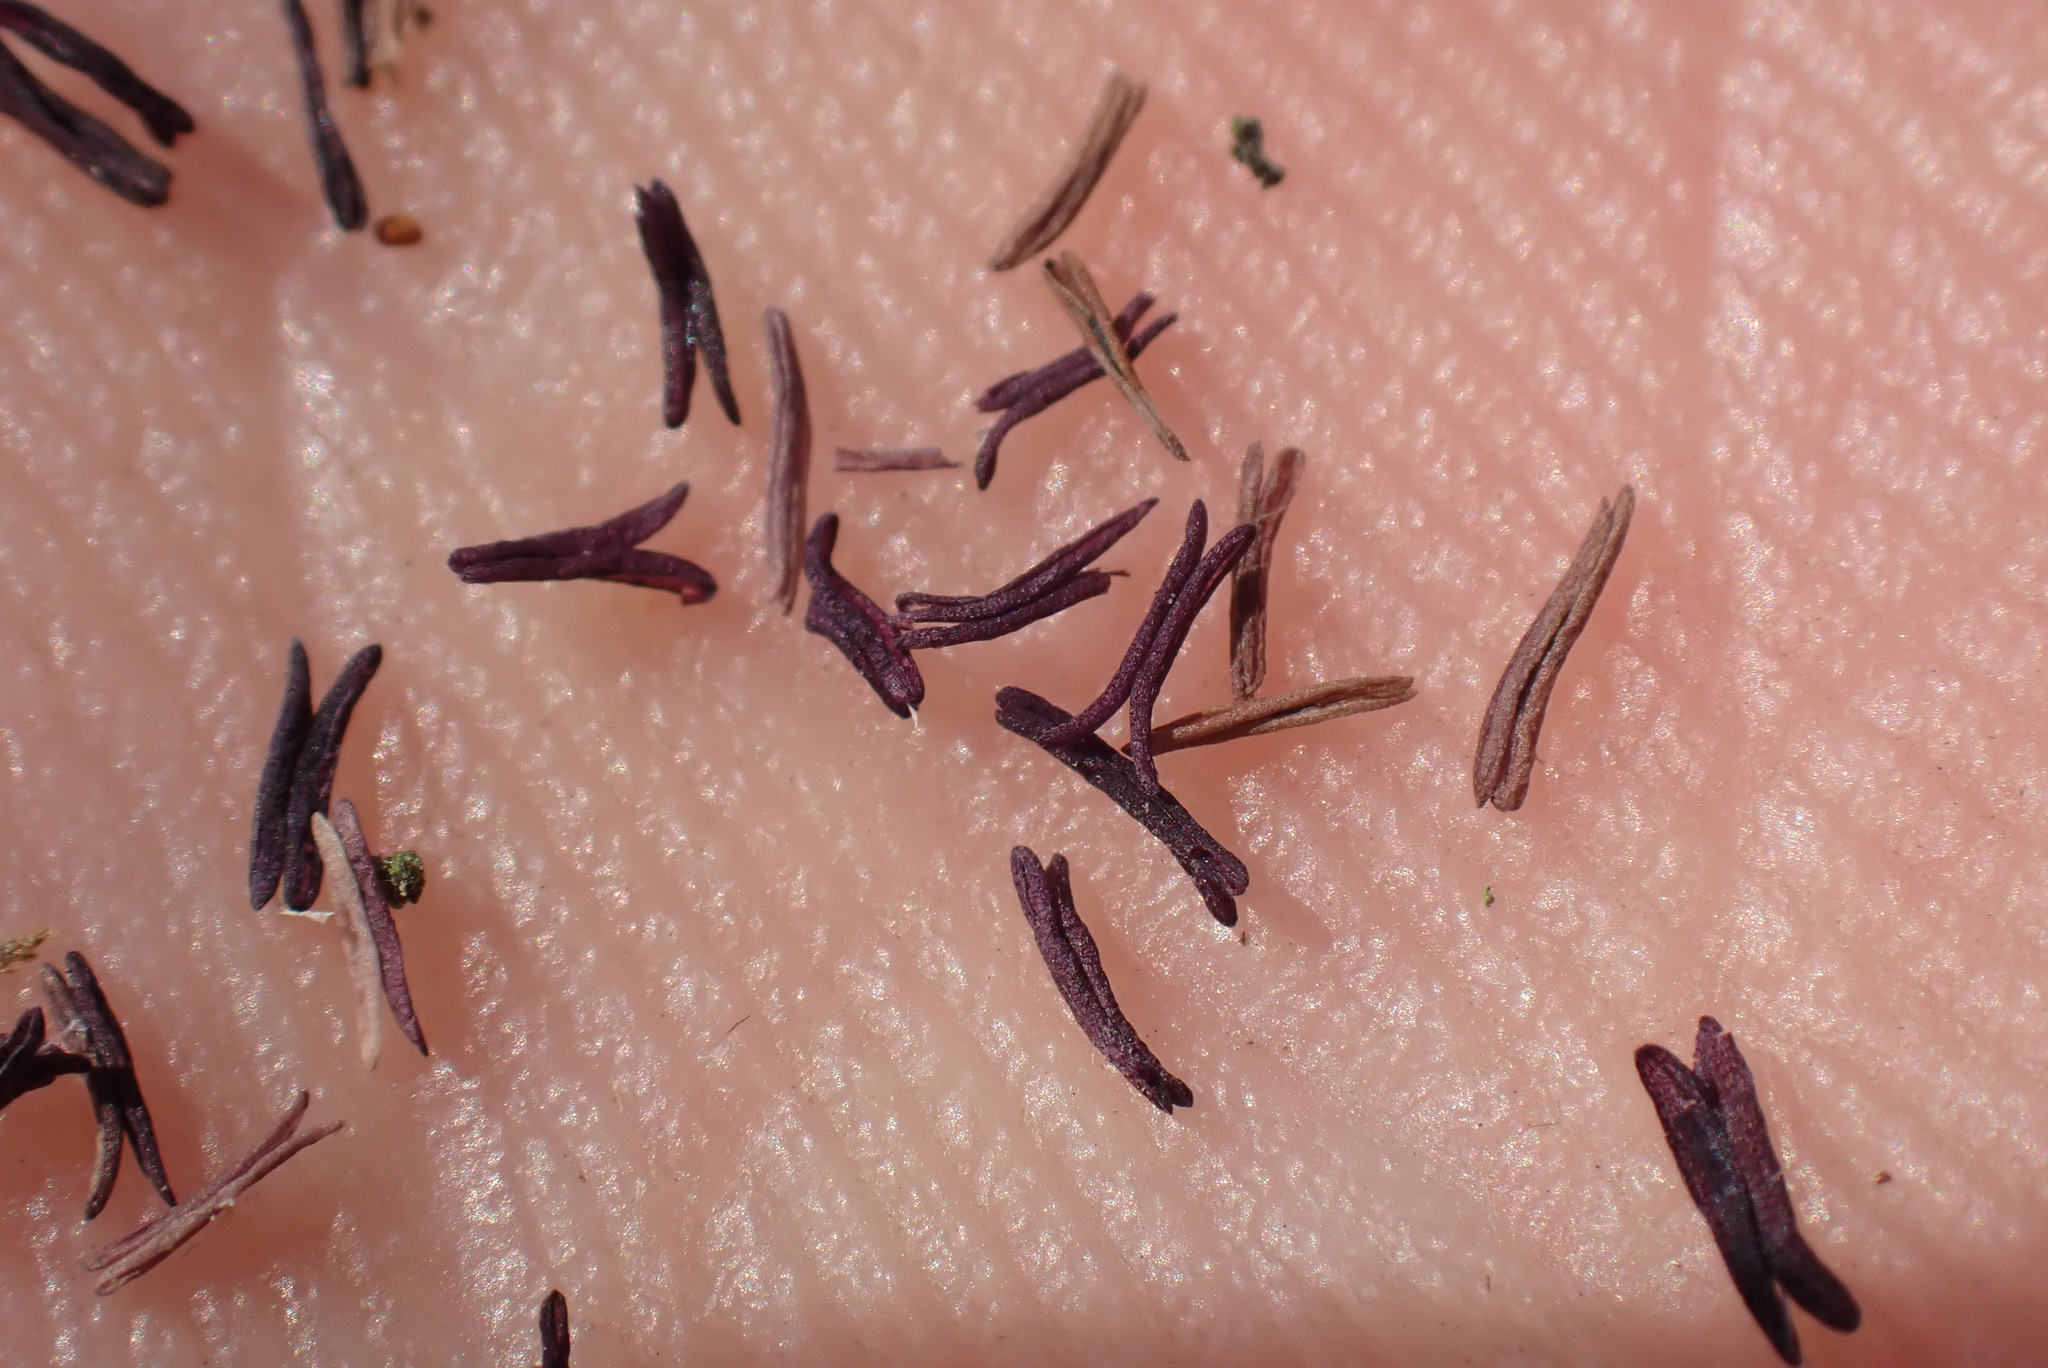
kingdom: Plantae
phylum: Tracheophyta
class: Liliopsida
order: Poales
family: Poaceae
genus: Molinia
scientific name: Molinia caerulea
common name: Purple moor-grass
